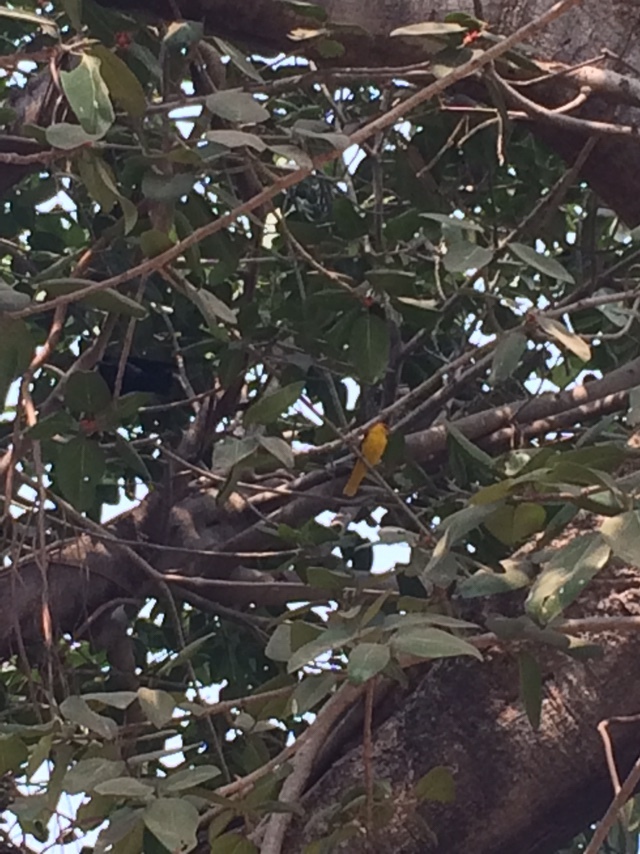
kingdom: Animalia
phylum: Chordata
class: Aves
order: Passeriformes
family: Oriolidae
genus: Oriolus
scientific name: Oriolus kundoo
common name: Indian golden oriole
